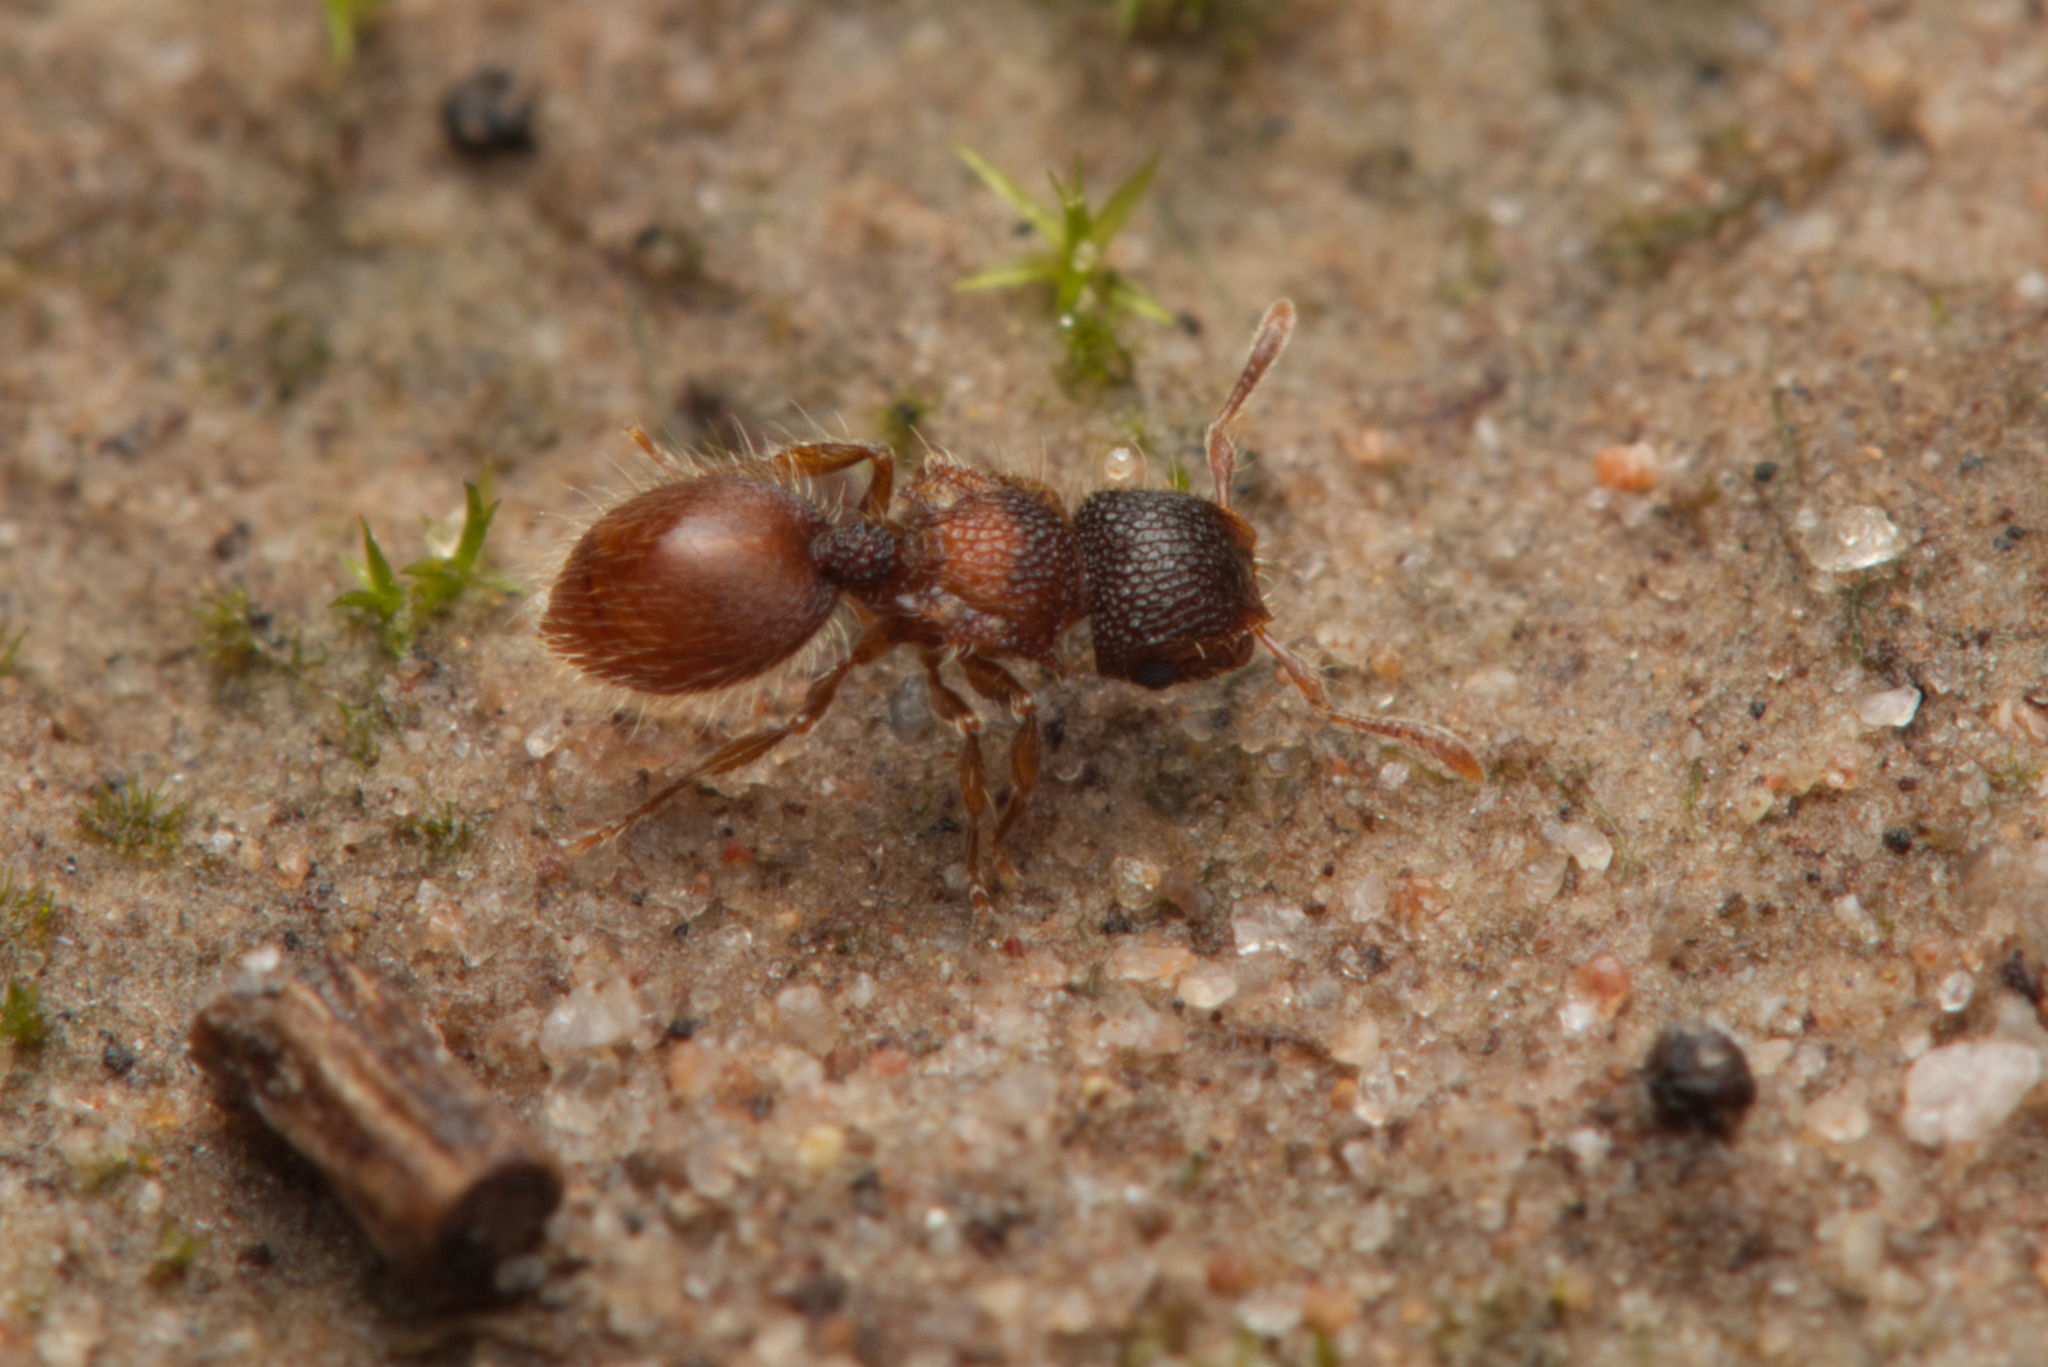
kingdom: Animalia
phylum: Arthropoda
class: Insecta
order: Hymenoptera
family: Formicidae
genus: Meranoplus
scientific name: Meranoplus froggatti
